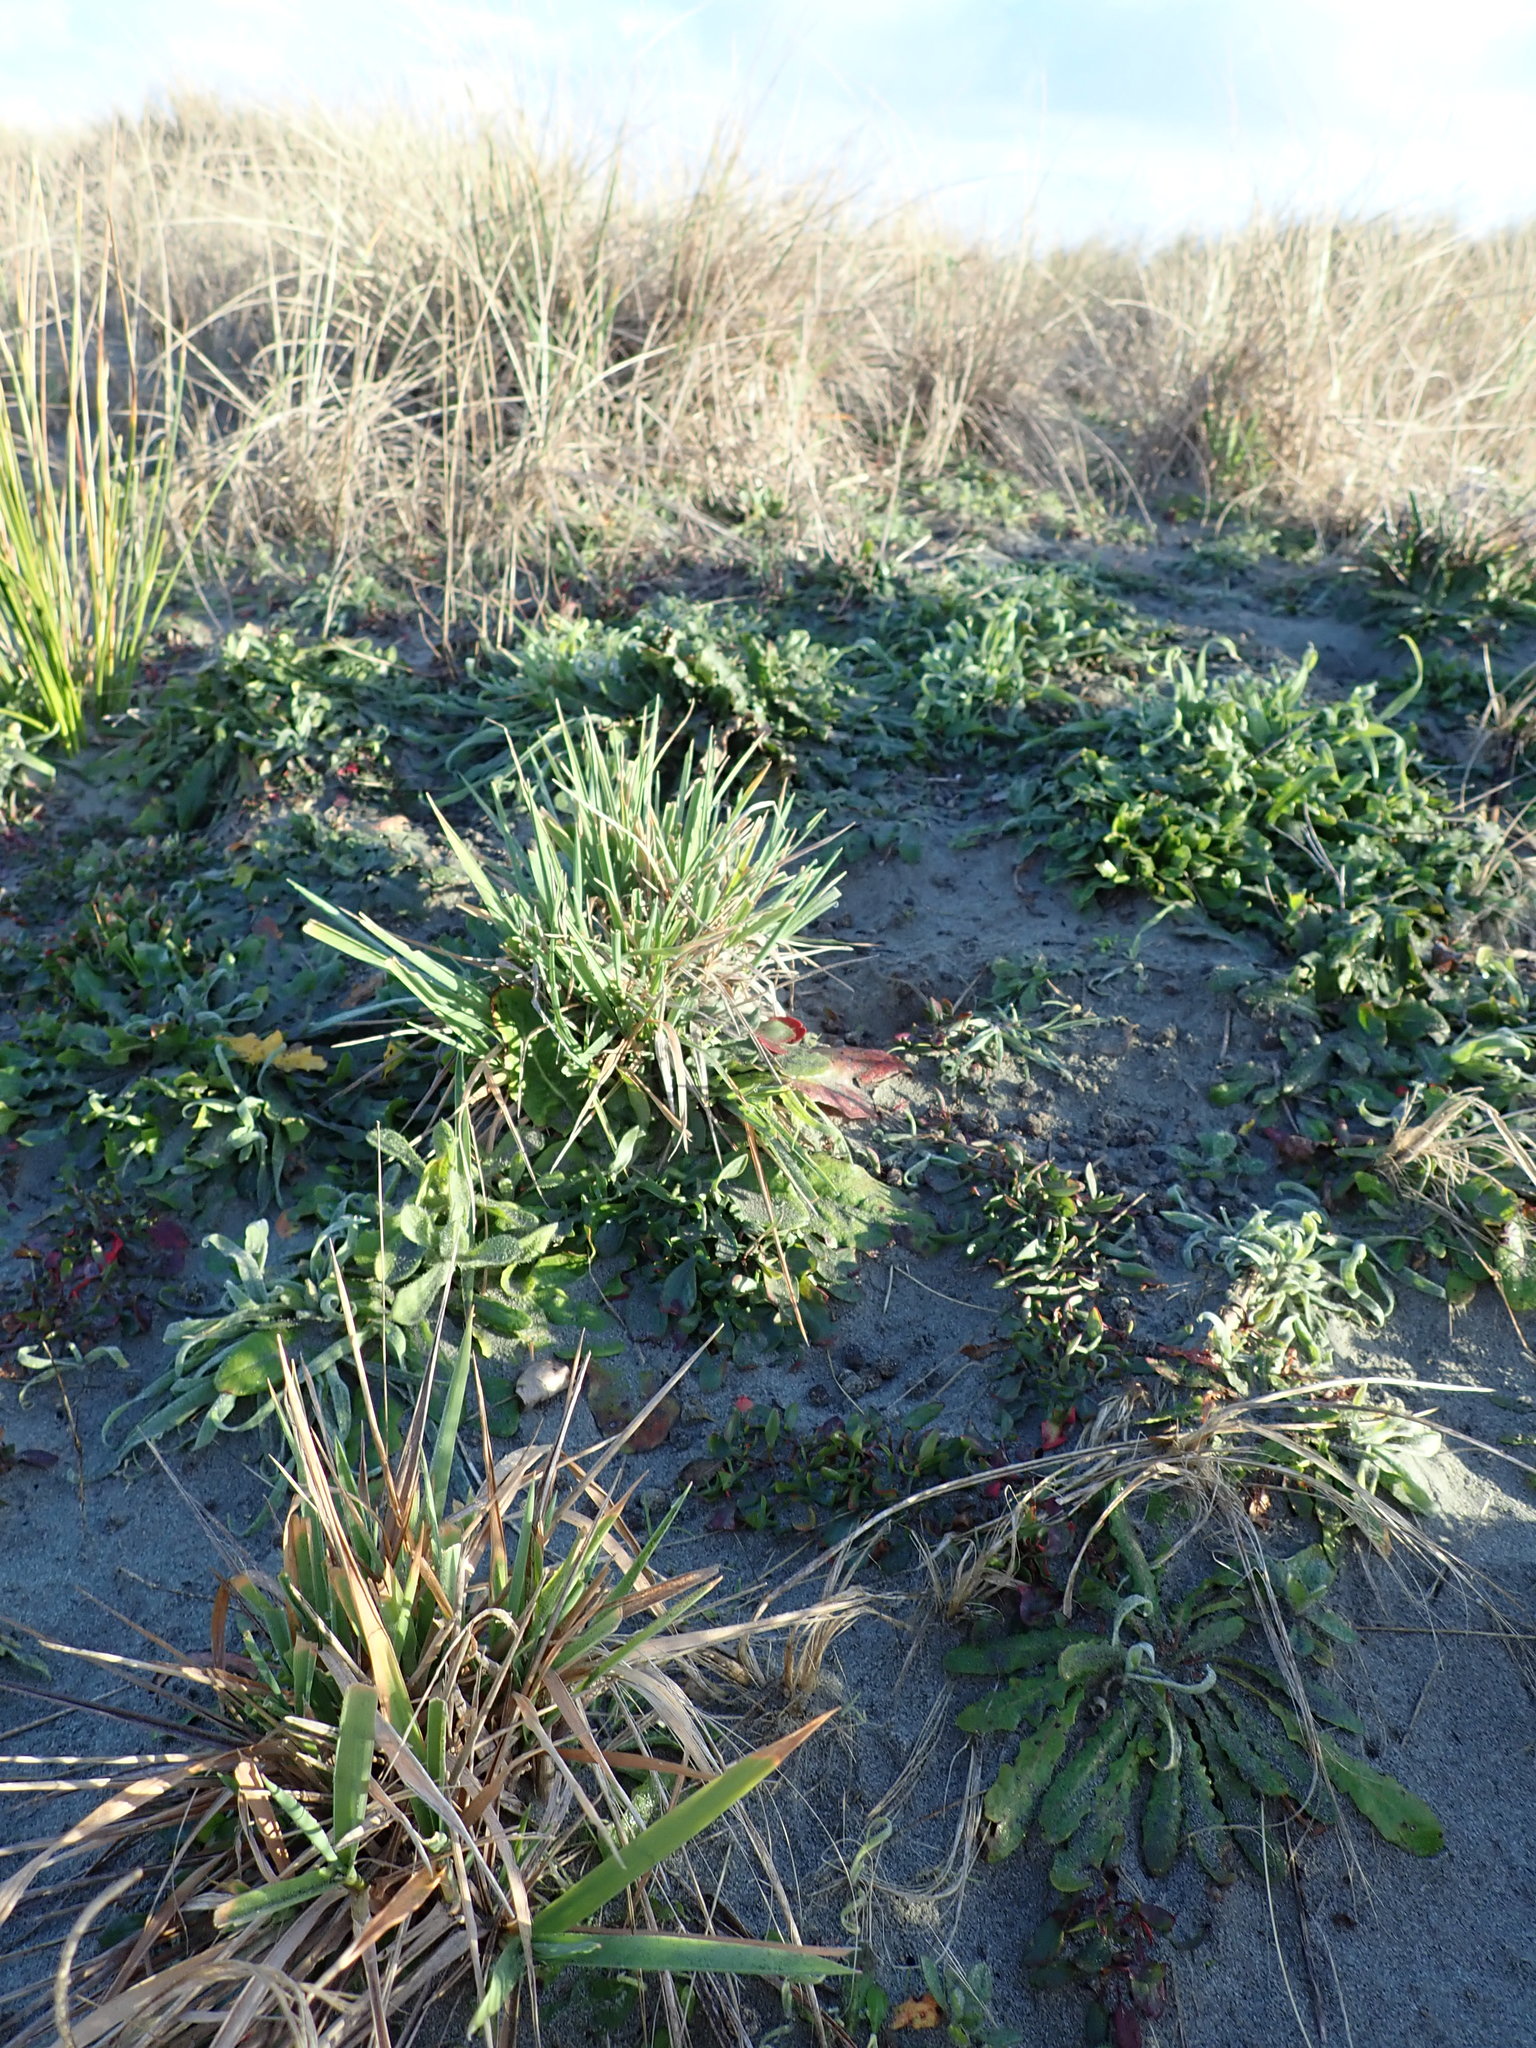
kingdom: Plantae
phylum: Tracheophyta
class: Liliopsida
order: Poales
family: Poaceae
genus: Lachnagrostis
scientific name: Lachnagrostis billardierei
